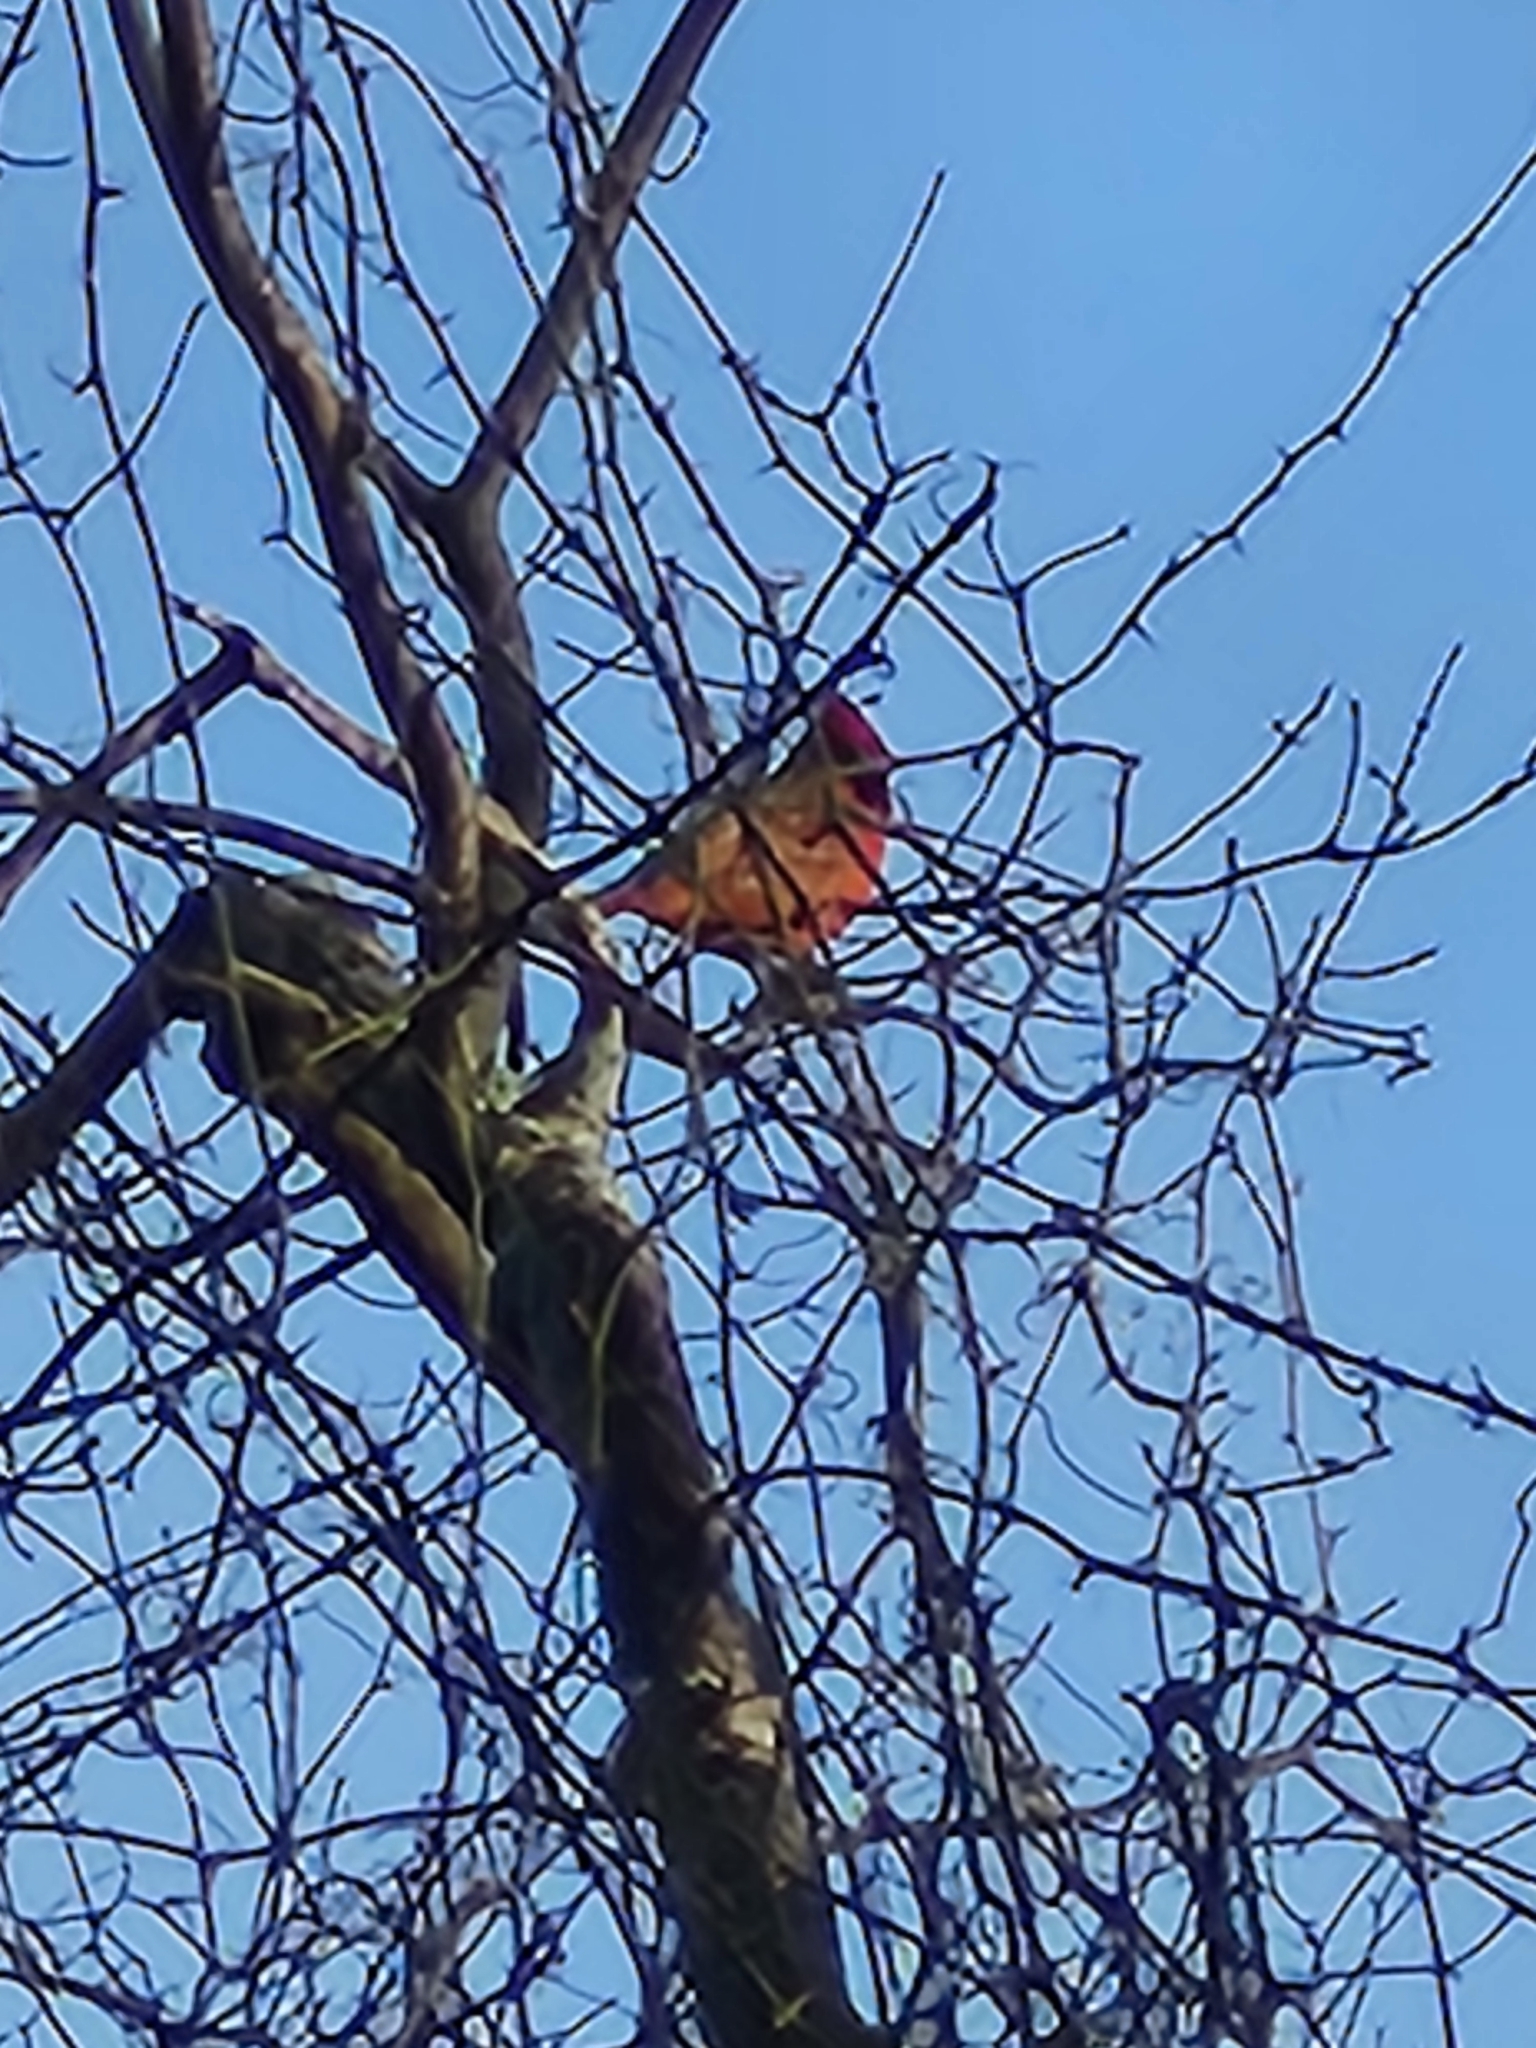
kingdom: Animalia
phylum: Chordata
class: Aves
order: Passeriformes
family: Cardinalidae
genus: Cardinalis
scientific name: Cardinalis cardinalis
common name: Northern cardinal
